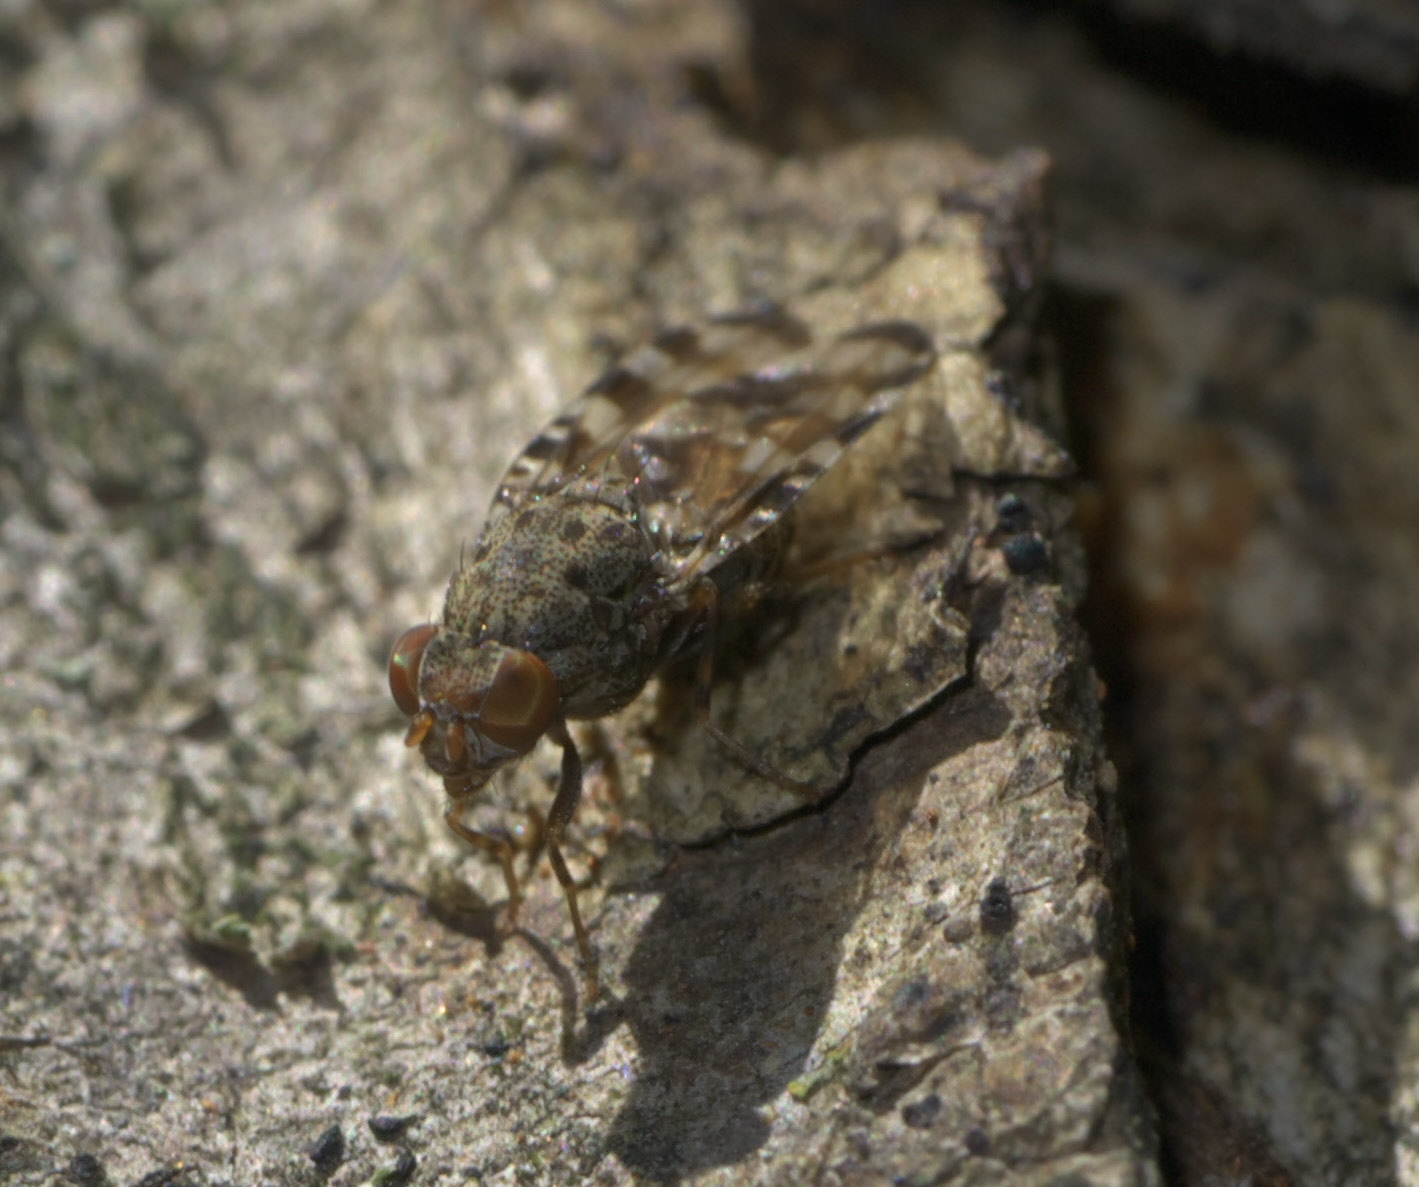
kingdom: Animalia
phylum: Arthropoda
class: Insecta
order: Diptera
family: Ulidiidae
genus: Pseudotephritis
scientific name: Pseudotephritis approximata
